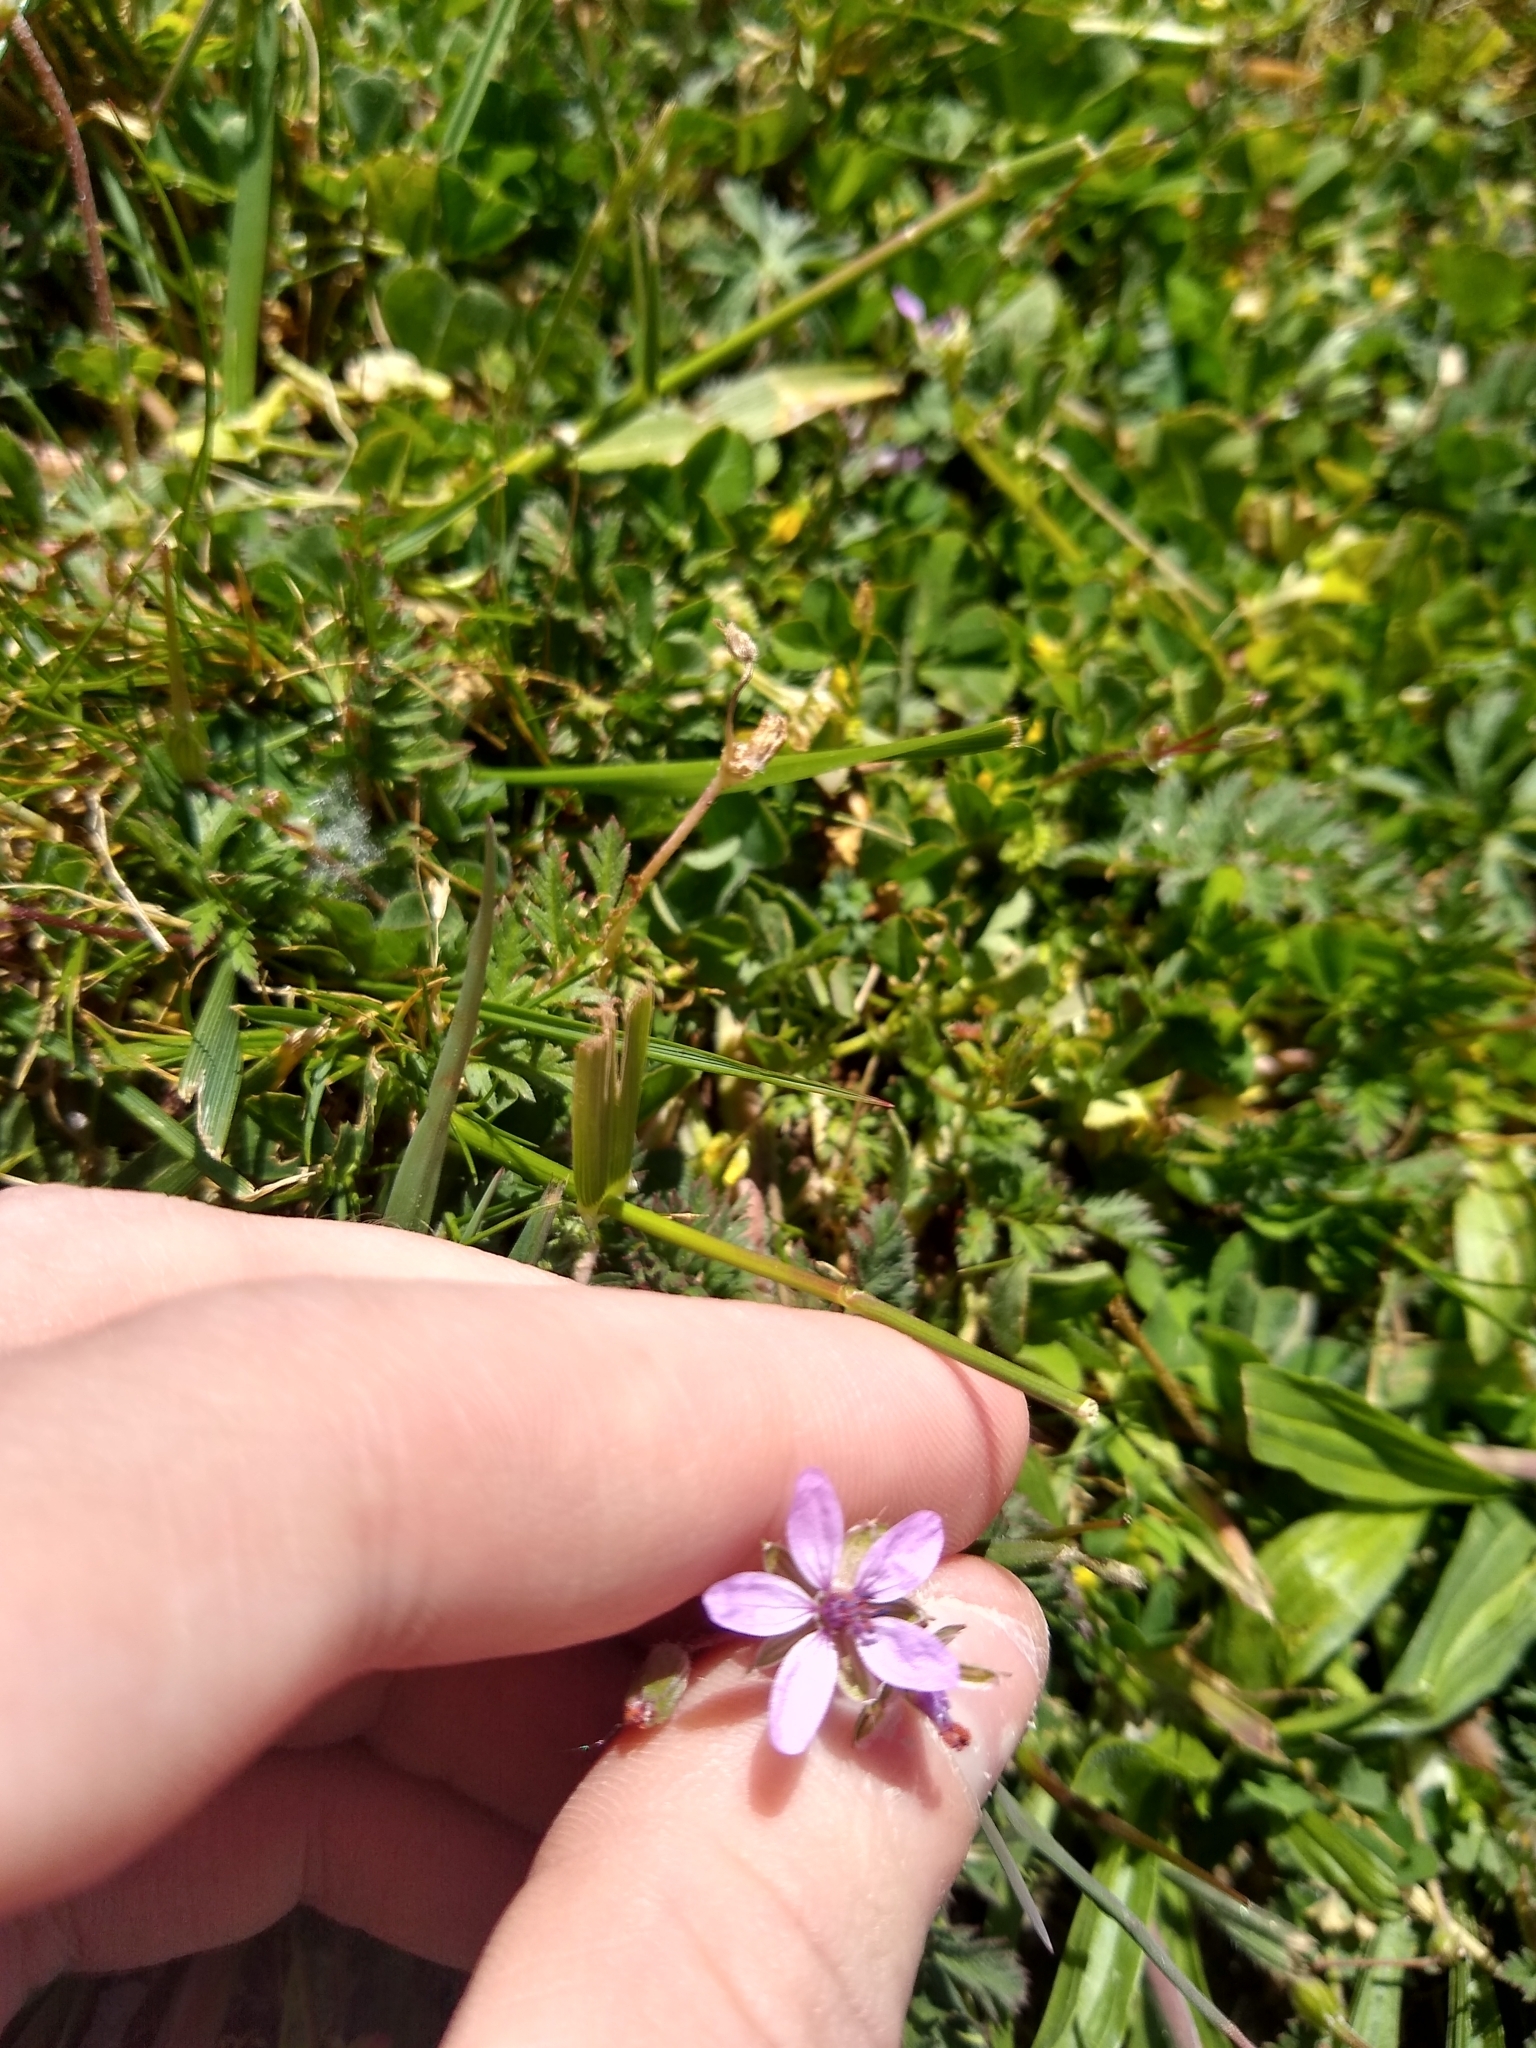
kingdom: Plantae
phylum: Tracheophyta
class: Magnoliopsida
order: Geraniales
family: Geraniaceae
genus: Erodium
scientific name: Erodium cicutarium
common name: Common stork's-bill
